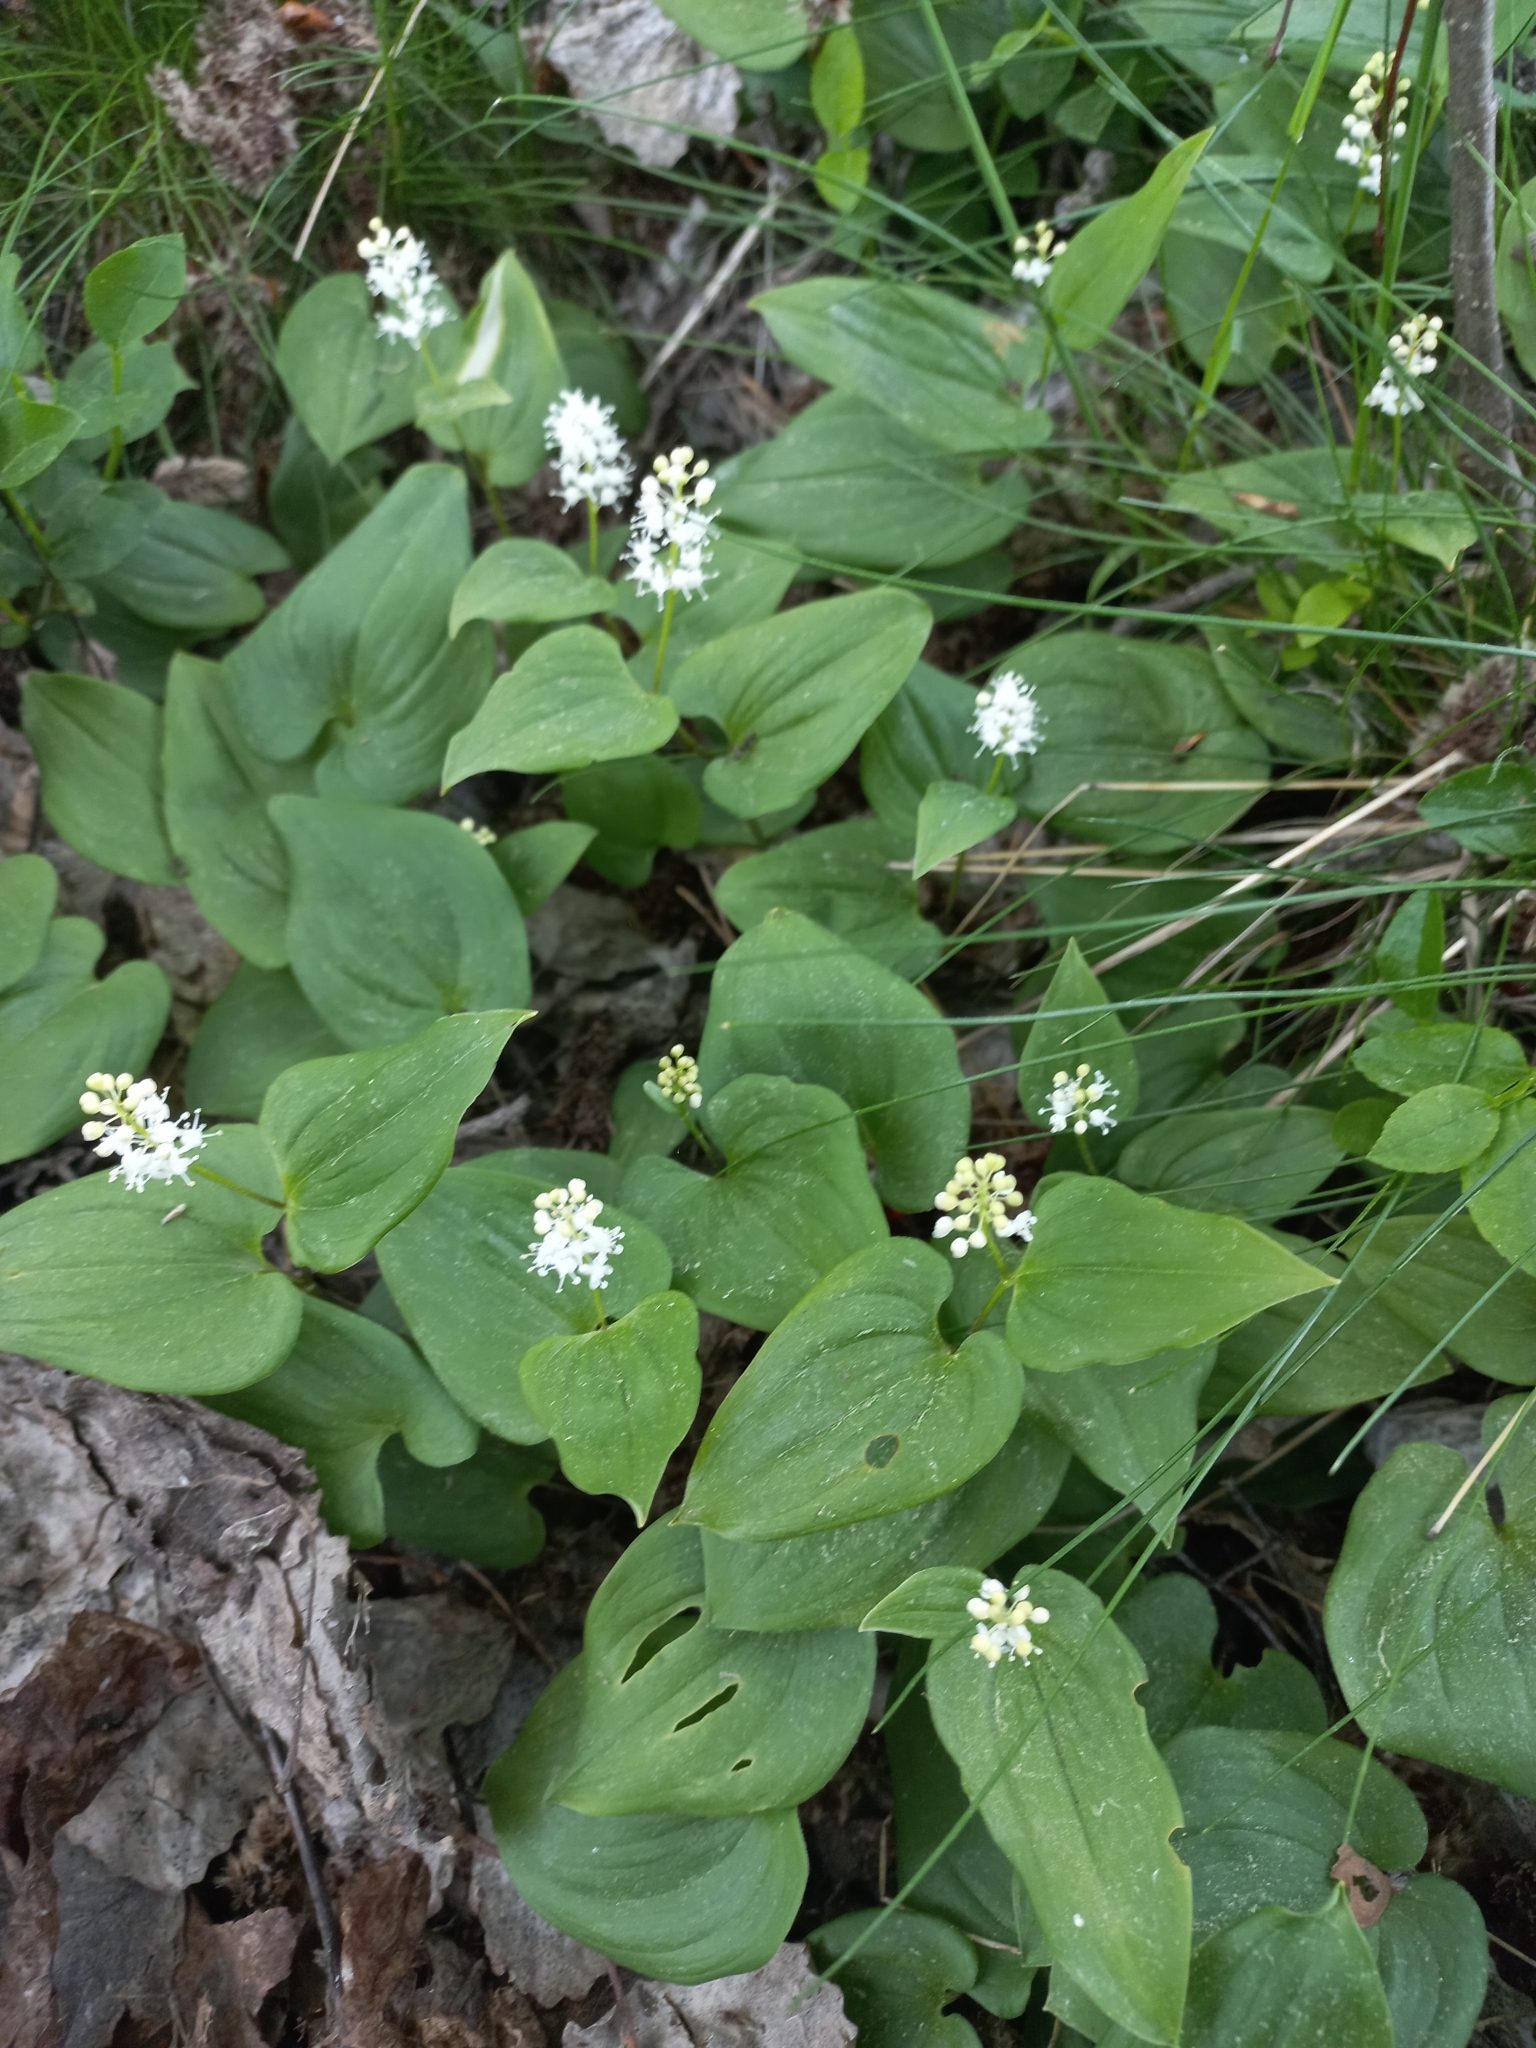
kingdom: Plantae
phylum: Tracheophyta
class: Liliopsida
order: Asparagales
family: Asparagaceae
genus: Maianthemum
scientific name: Maianthemum bifolium
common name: May lily
